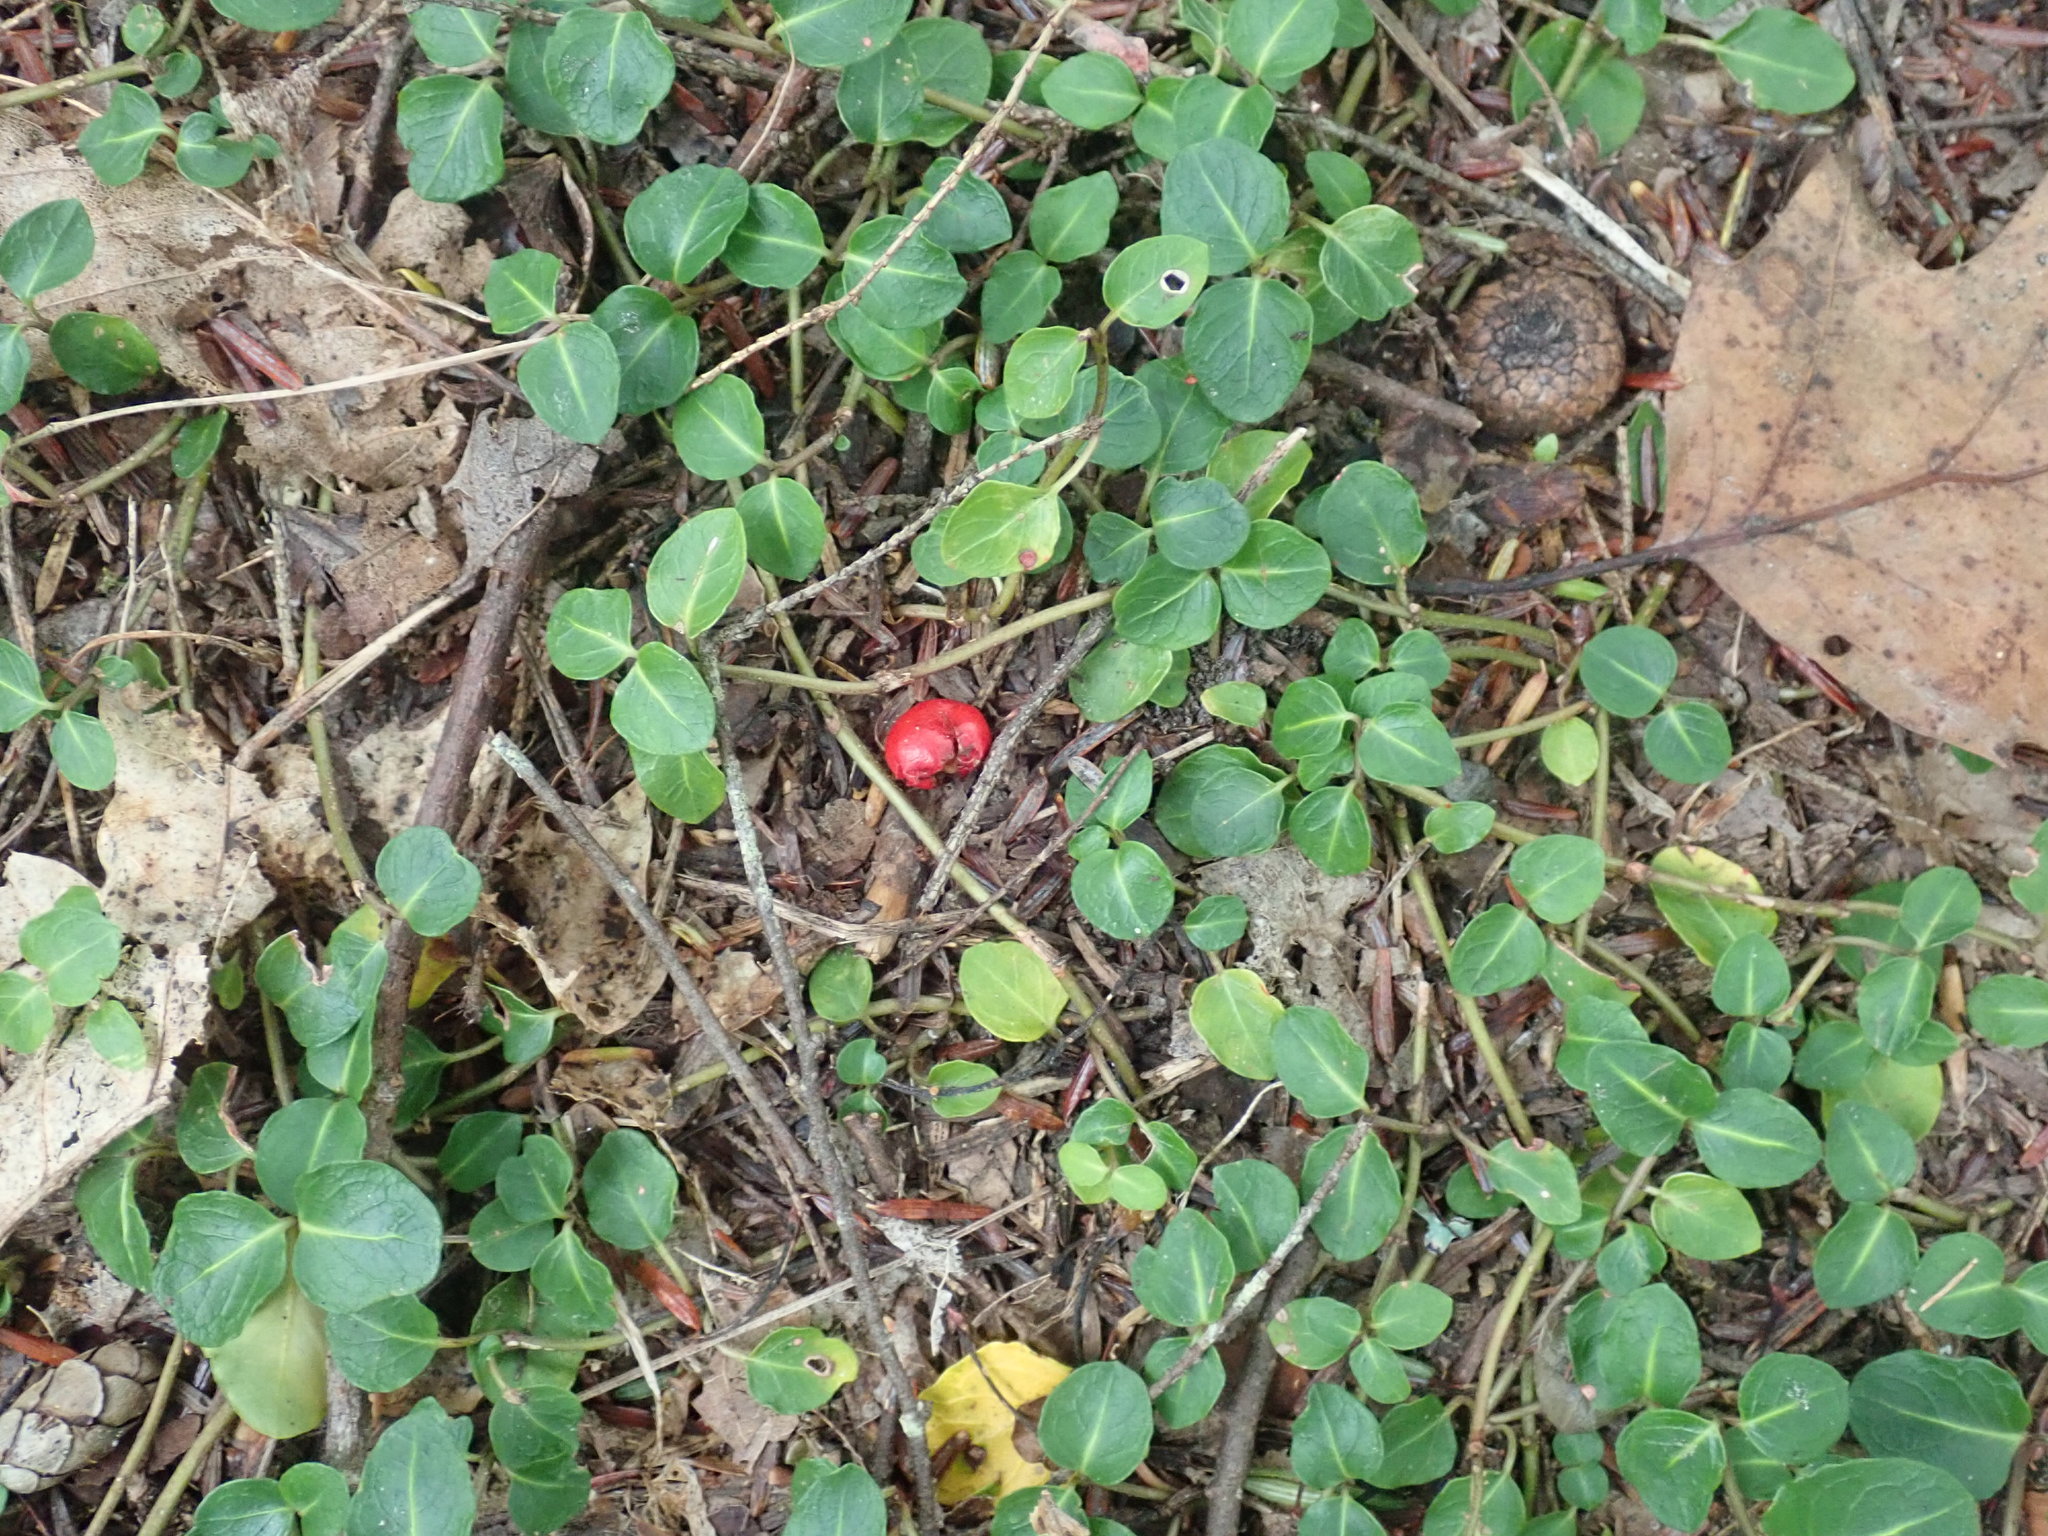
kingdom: Plantae
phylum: Tracheophyta
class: Magnoliopsida
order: Gentianales
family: Rubiaceae
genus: Mitchella
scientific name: Mitchella repens
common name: Partridge-berry
